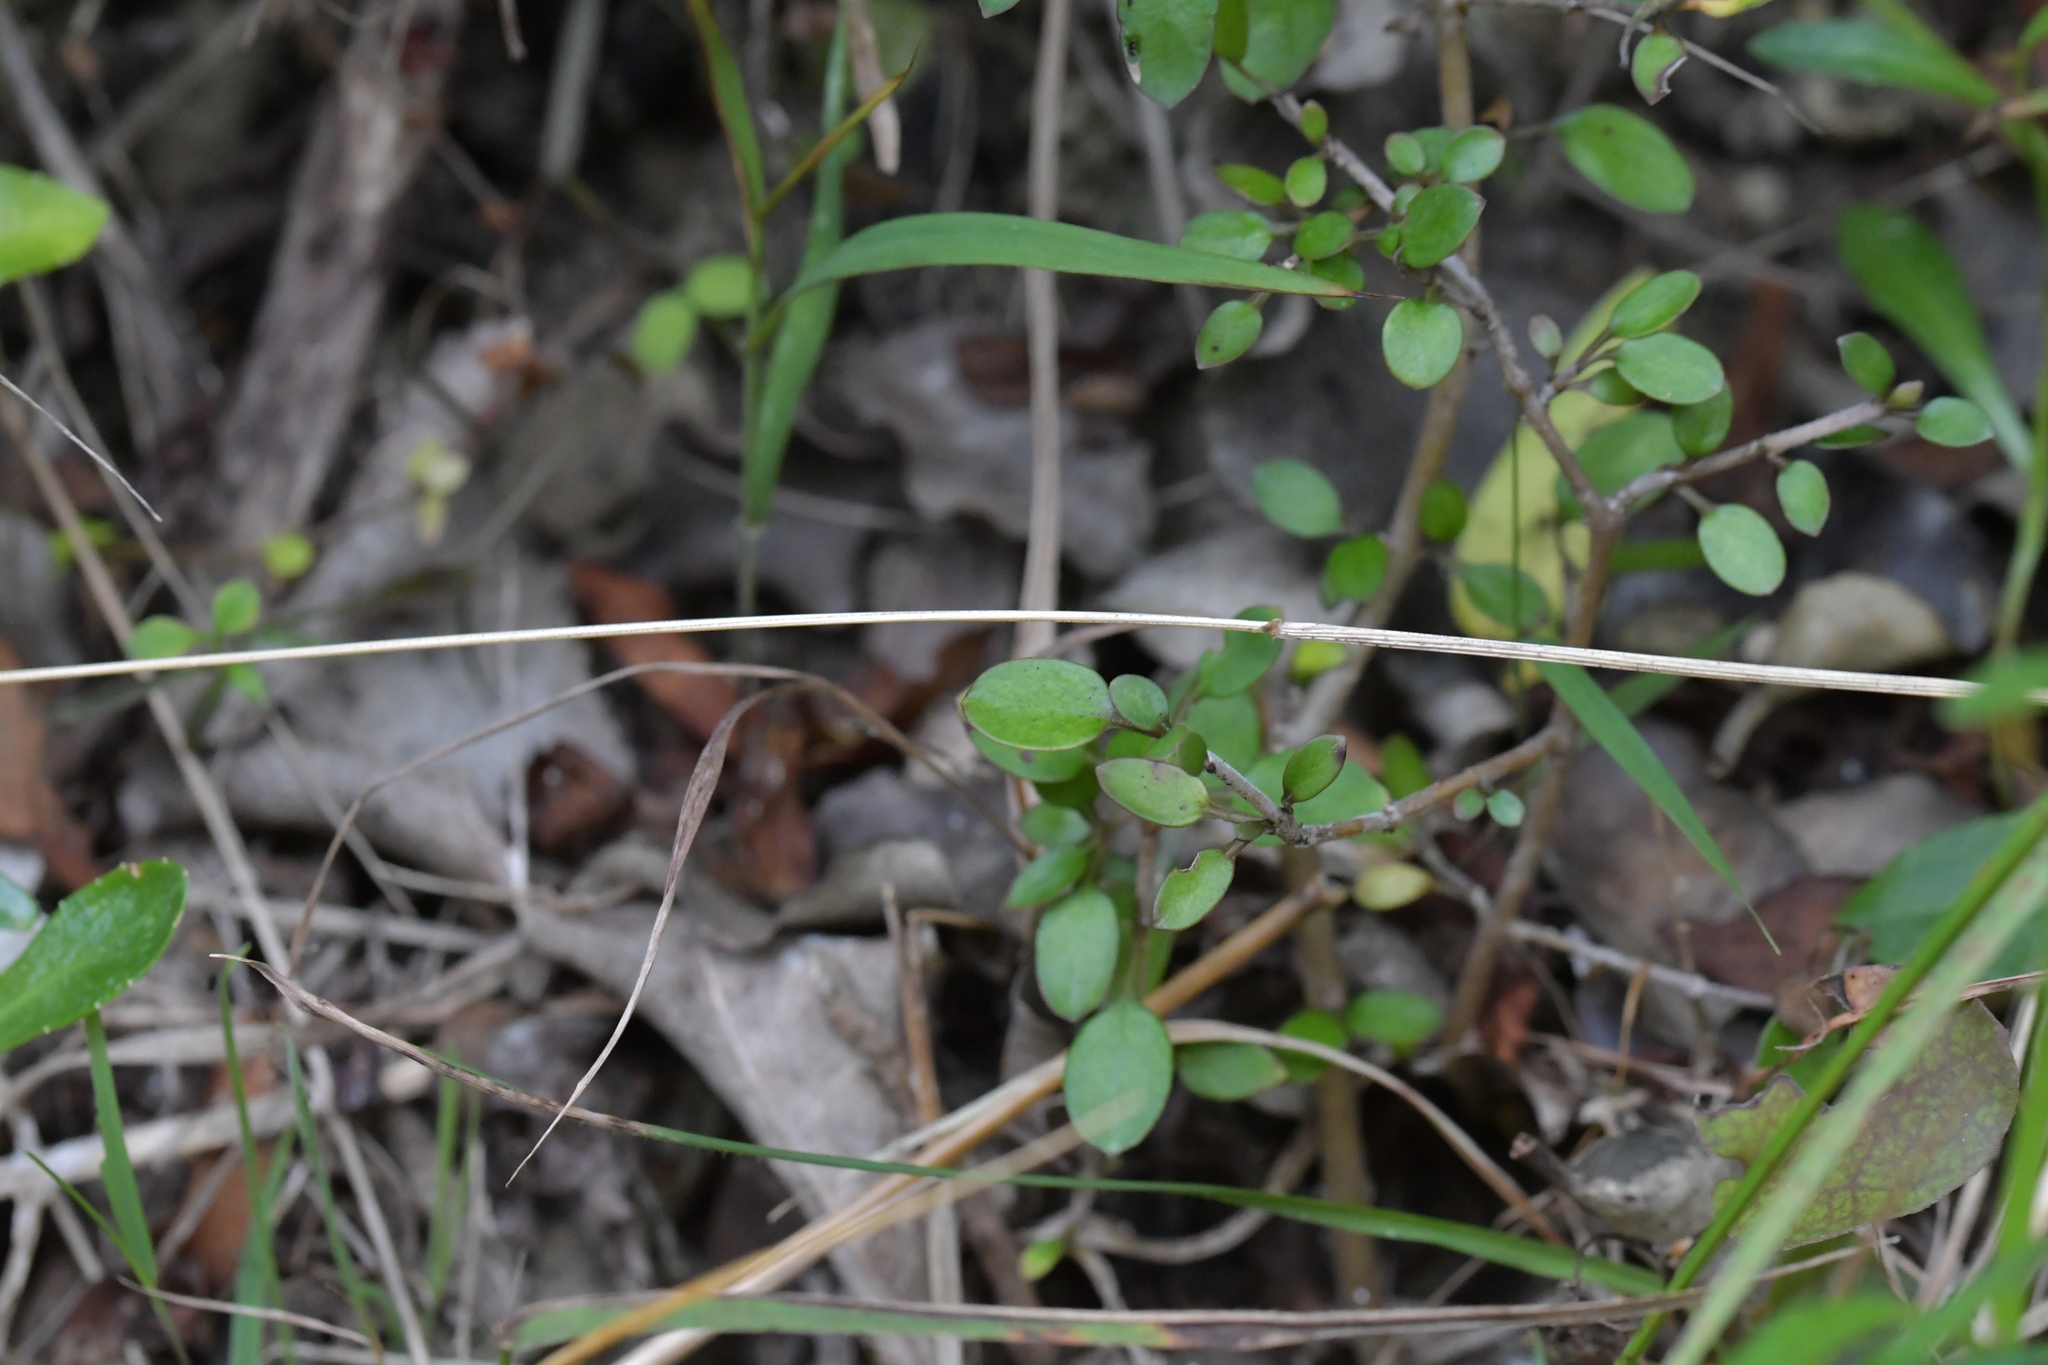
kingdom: Plantae
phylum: Tracheophyta
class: Magnoliopsida
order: Gentianales
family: Rubiaceae
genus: Coprosma
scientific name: Coprosma propinqua
